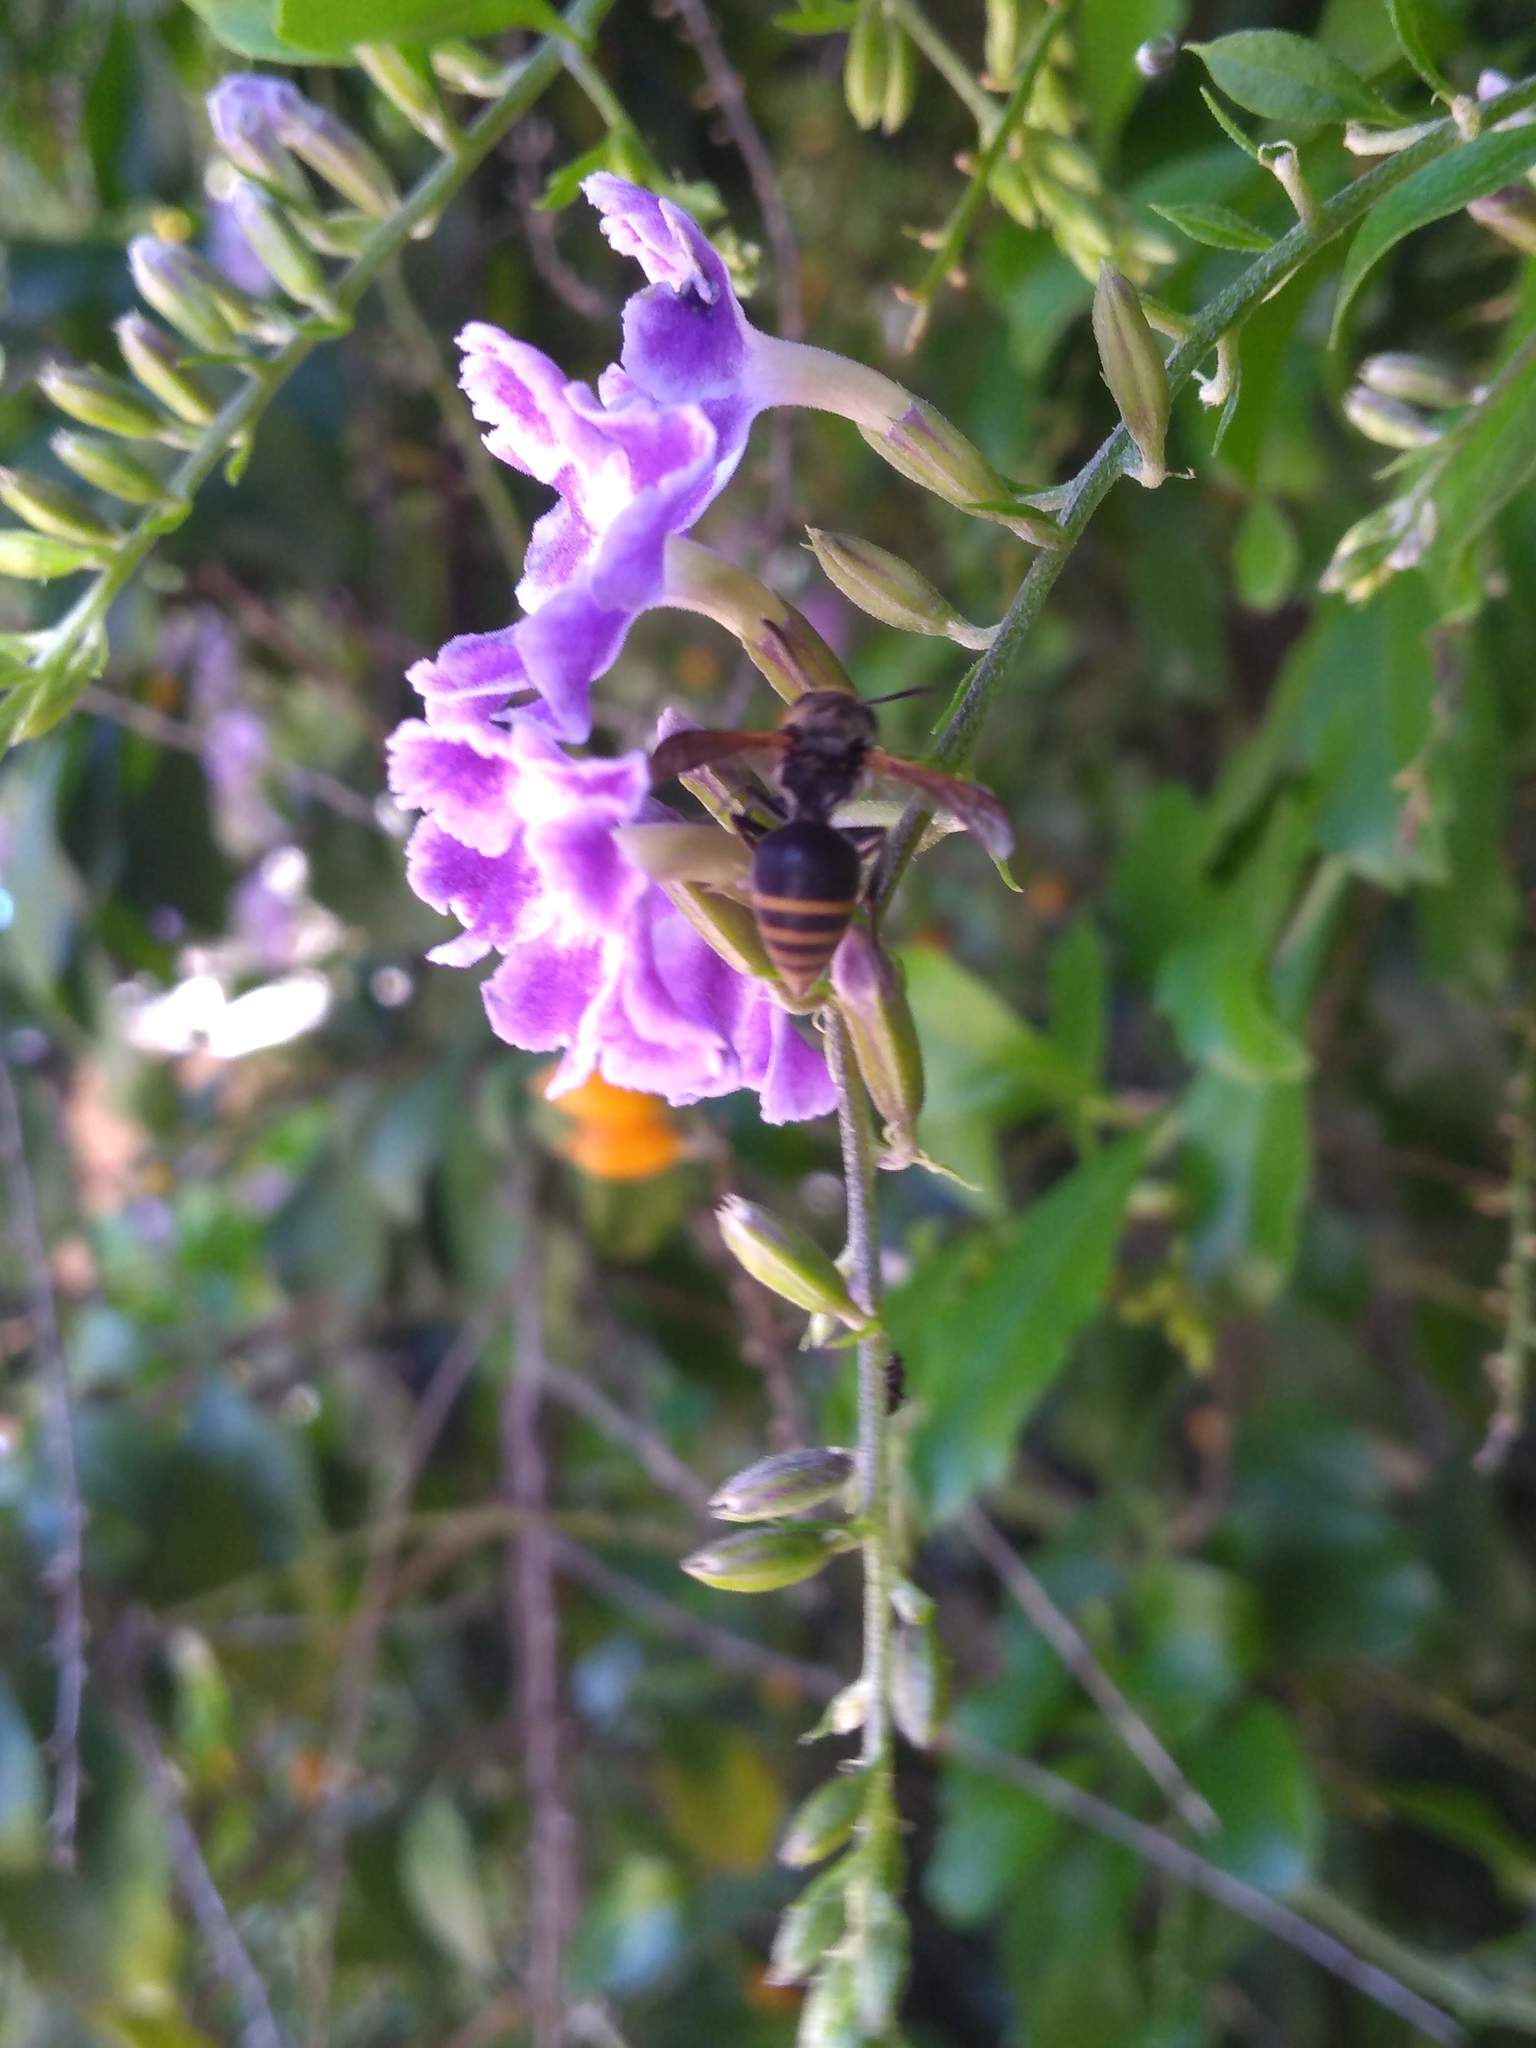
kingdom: Animalia
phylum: Arthropoda
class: Insecta
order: Hymenoptera
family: Vespidae
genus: Brachygastra
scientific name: Brachygastra lecheguana
